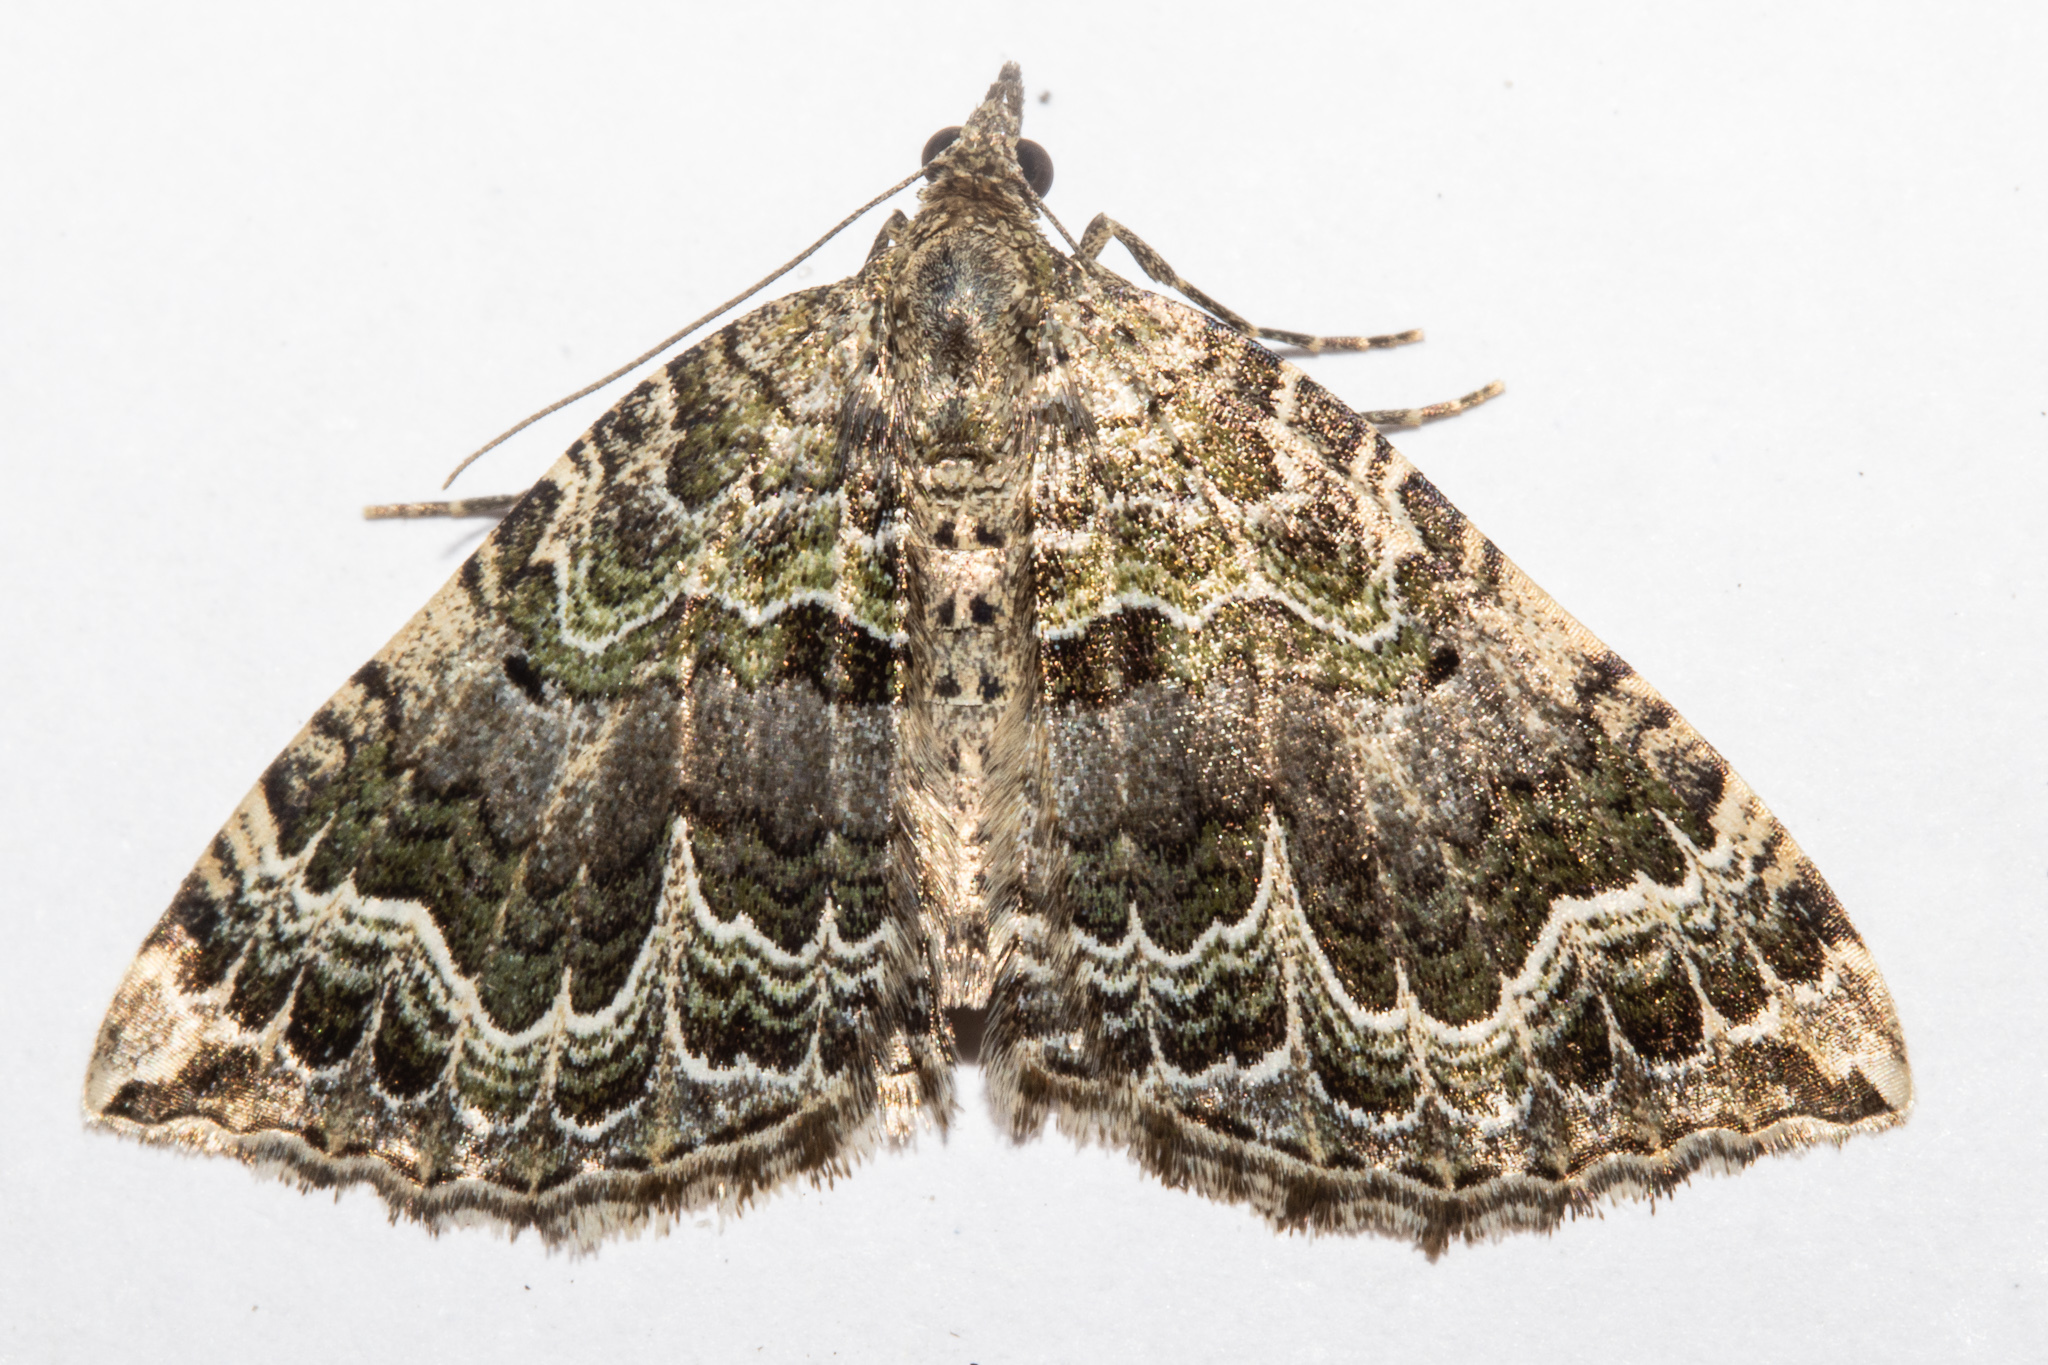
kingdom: Animalia
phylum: Arthropoda
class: Insecta
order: Lepidoptera
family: Geometridae
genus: Hydriomena
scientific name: Hydriomena rixata
